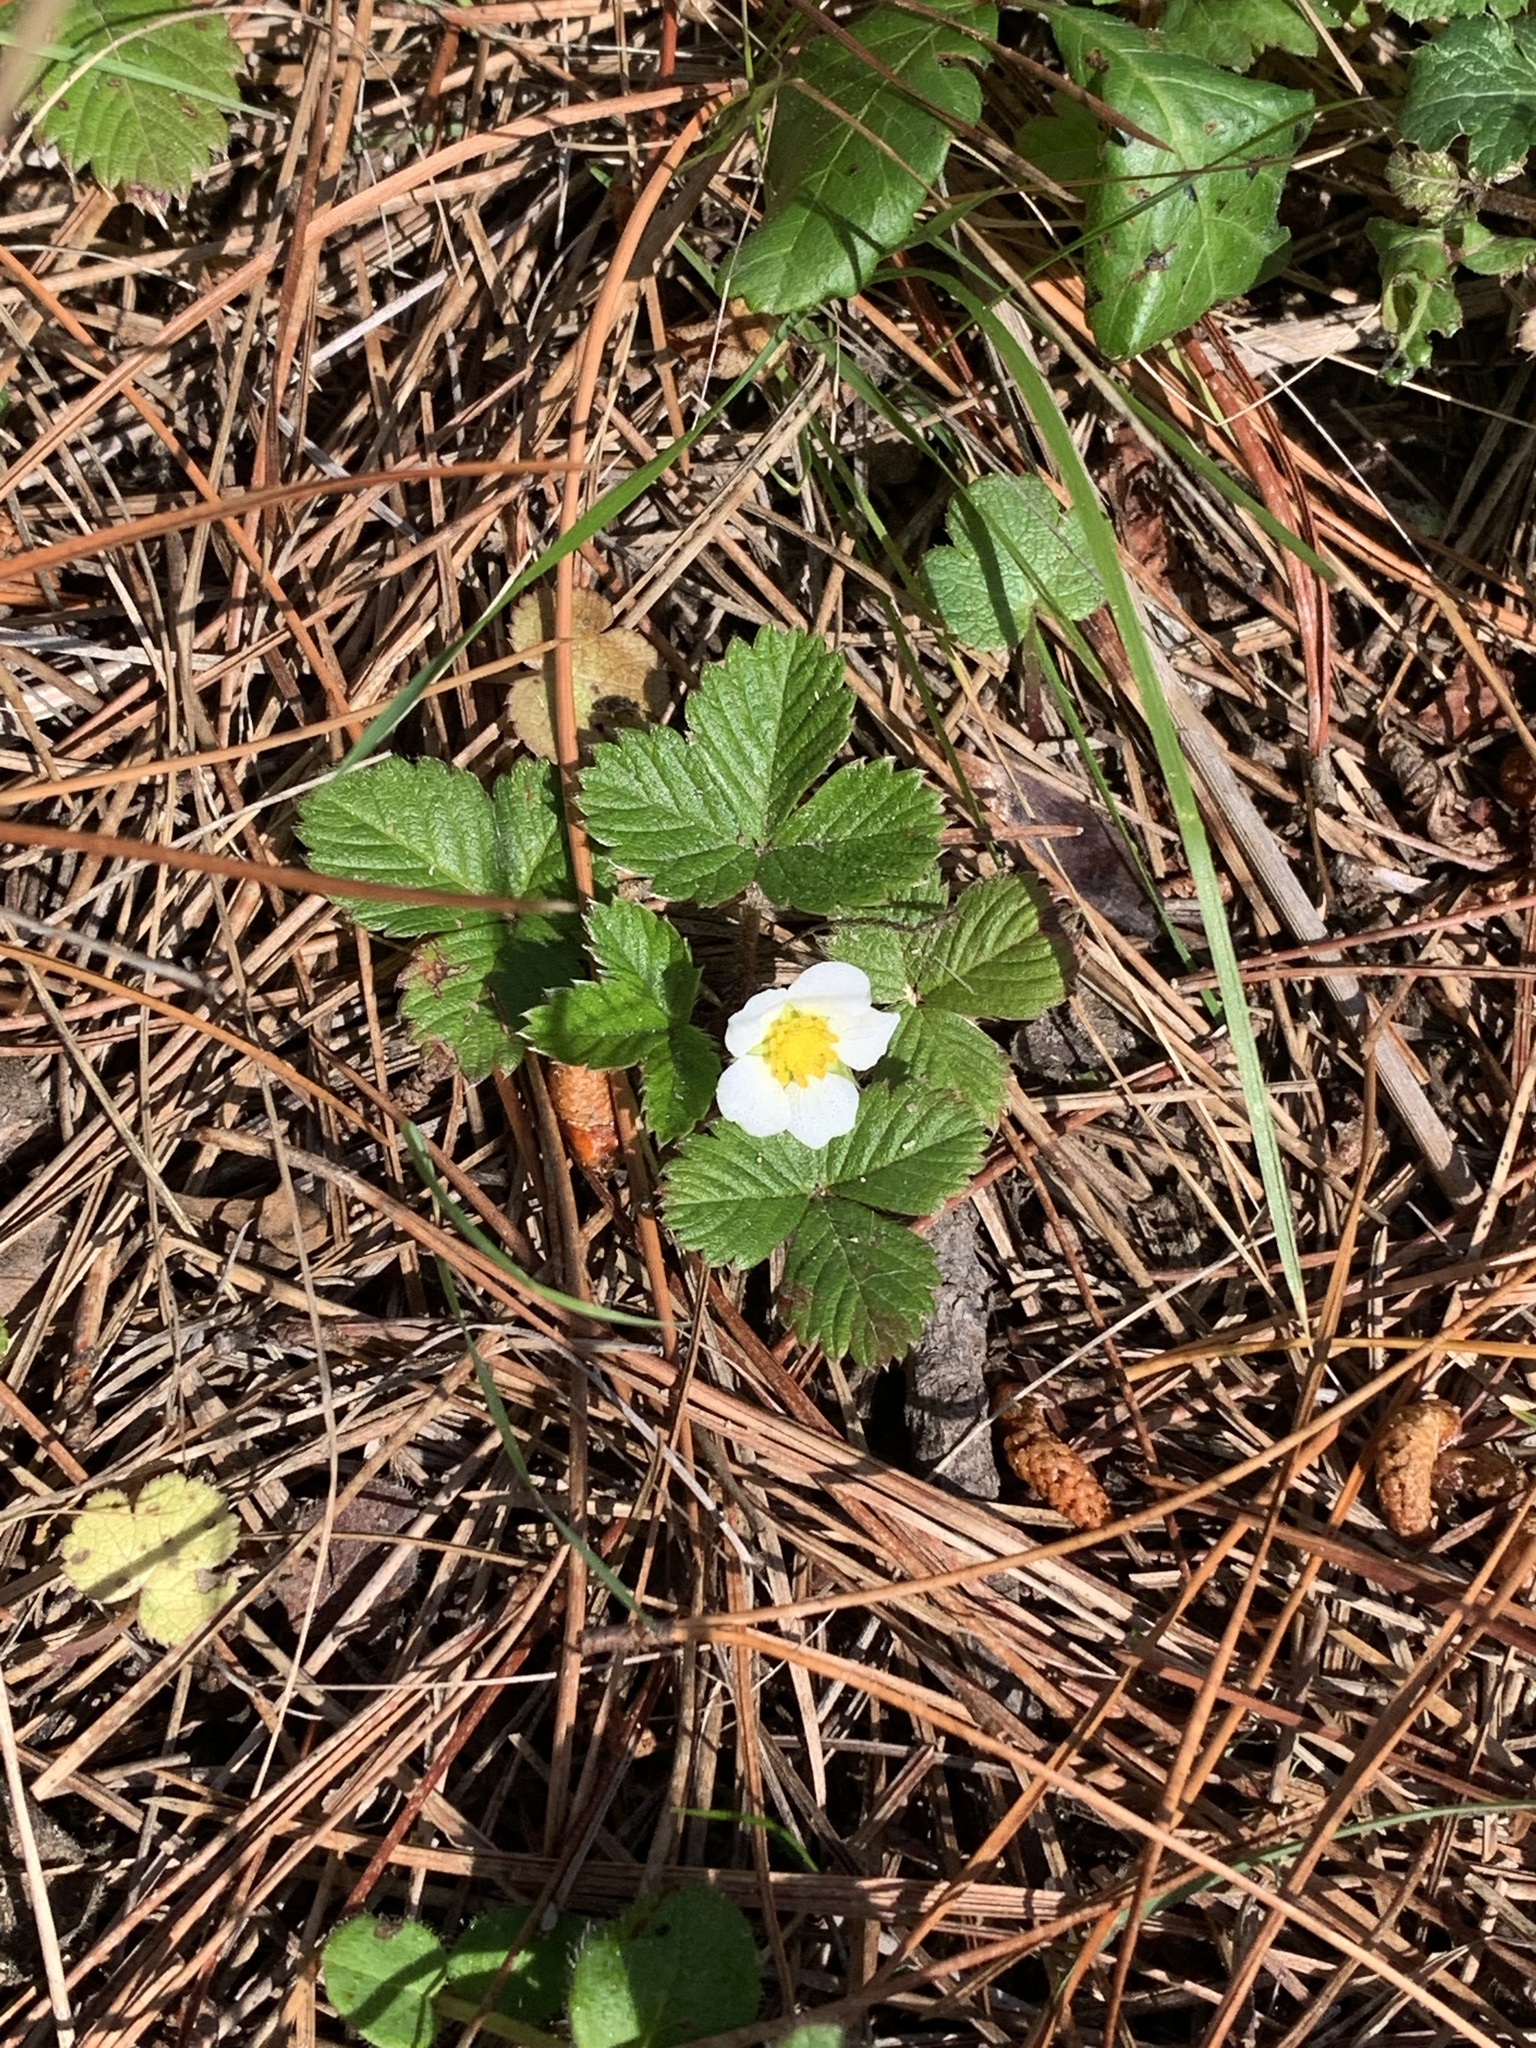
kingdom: Plantae
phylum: Tracheophyta
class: Magnoliopsida
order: Rosales
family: Rosaceae
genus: Fragaria
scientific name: Fragaria vesca
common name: Wild strawberry
